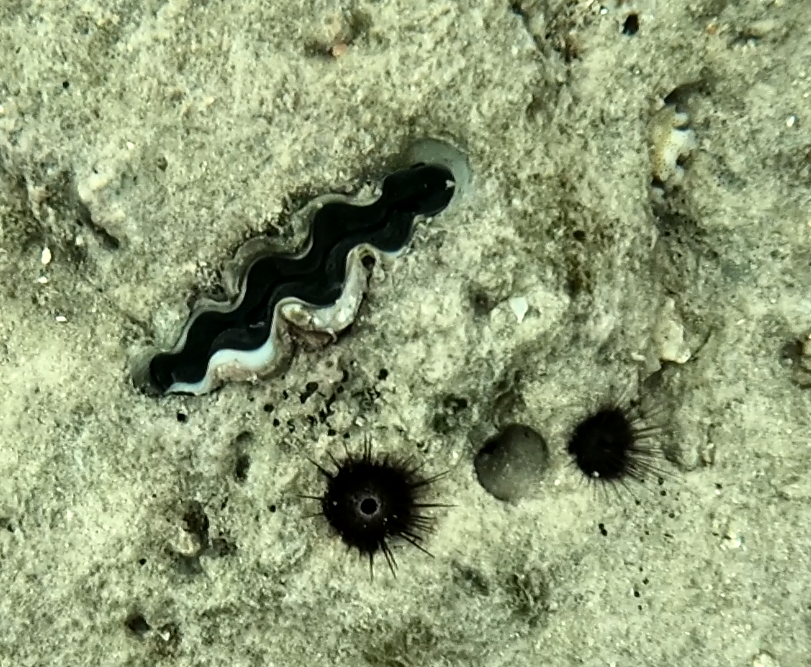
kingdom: Animalia
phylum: Mollusca
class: Bivalvia
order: Cardiida
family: Cardiidae
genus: Tridacna
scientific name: Tridacna crocea
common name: Boring clam
